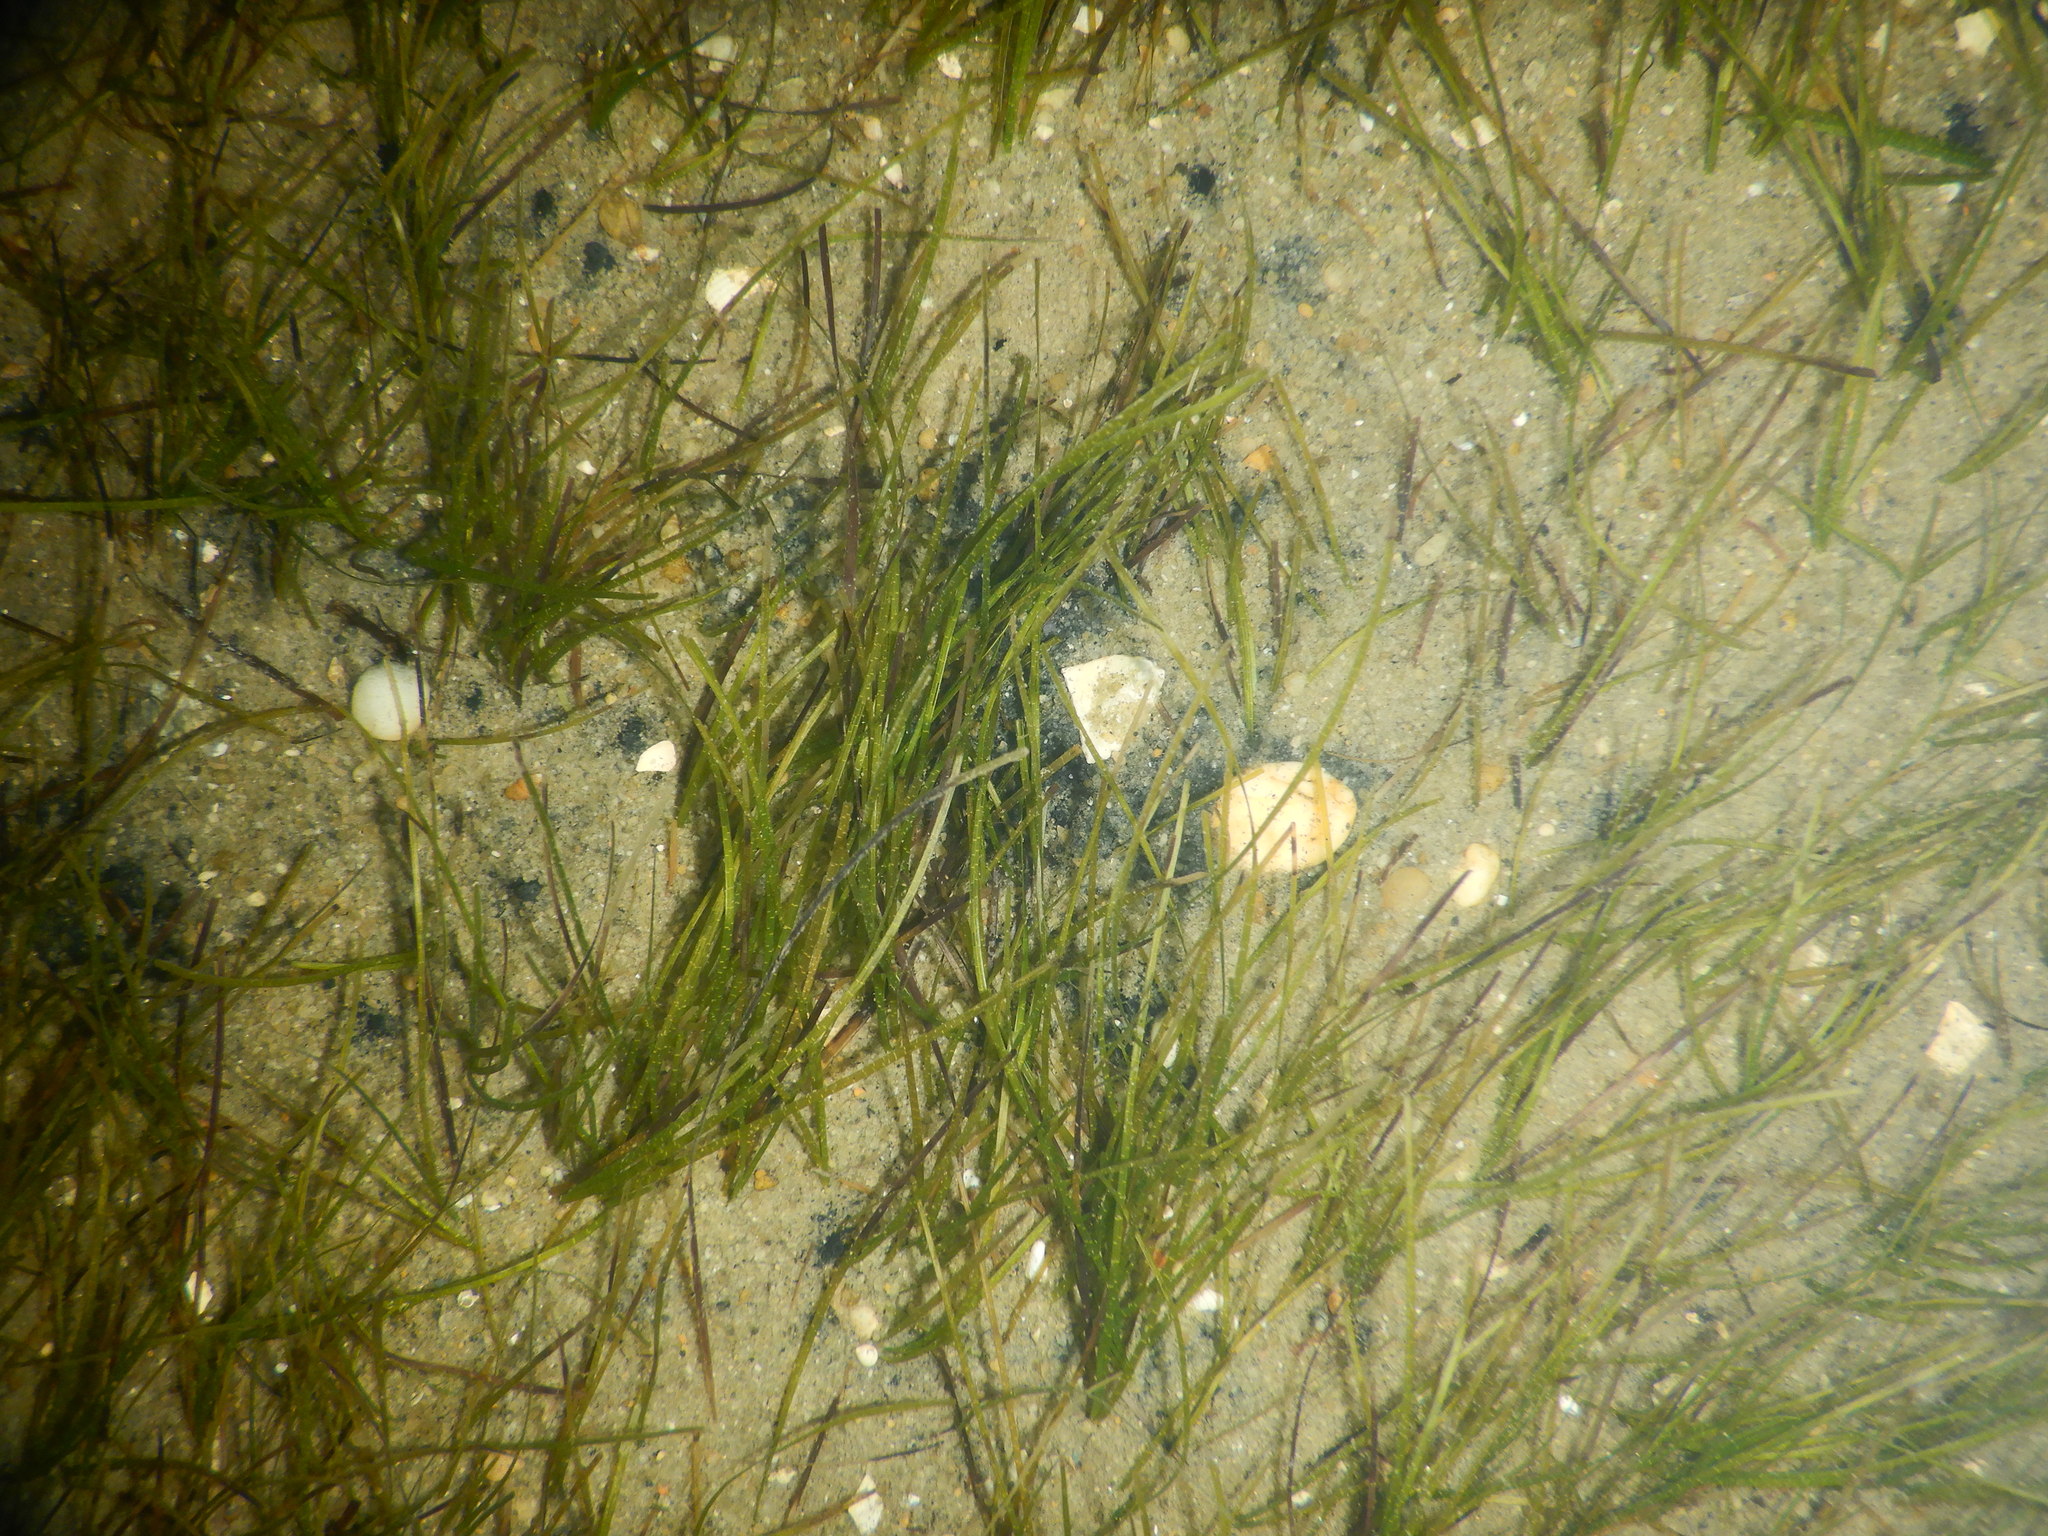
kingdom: Plantae
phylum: Tracheophyta
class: Liliopsida
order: Alismatales
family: Zosteraceae
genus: Zostera
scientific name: Zostera noltii
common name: Dwarf eelgrass
